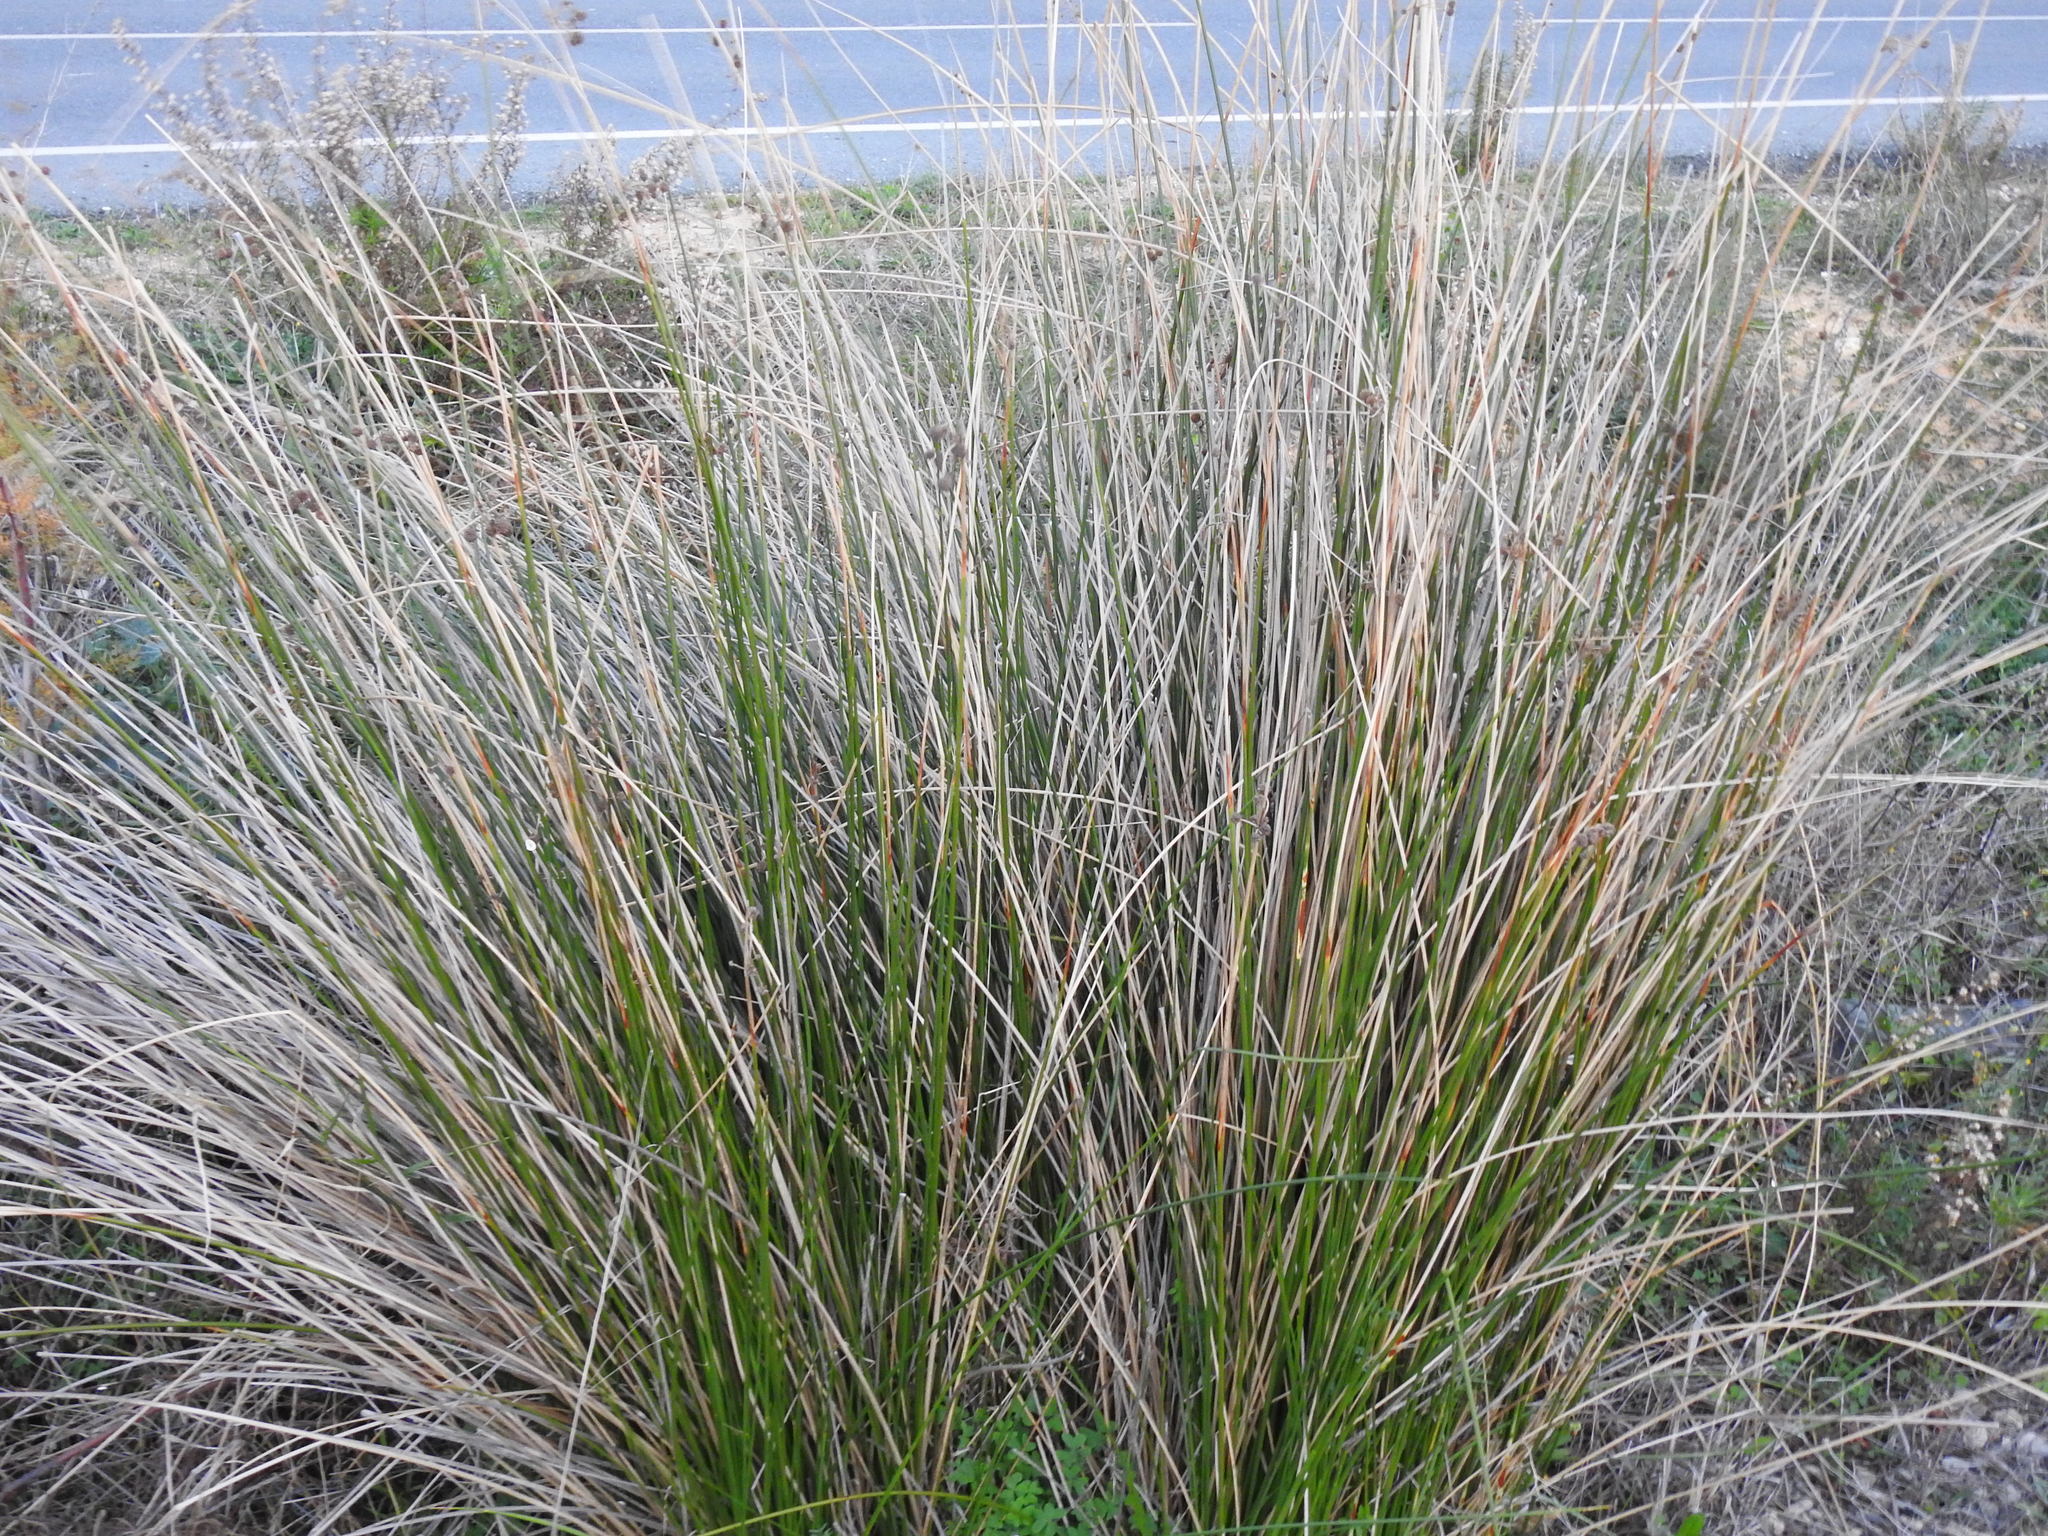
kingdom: Plantae
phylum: Tracheophyta
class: Liliopsida
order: Poales
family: Cyperaceae
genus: Scirpoides
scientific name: Scirpoides holoschoenus
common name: Round-headed club-rush
